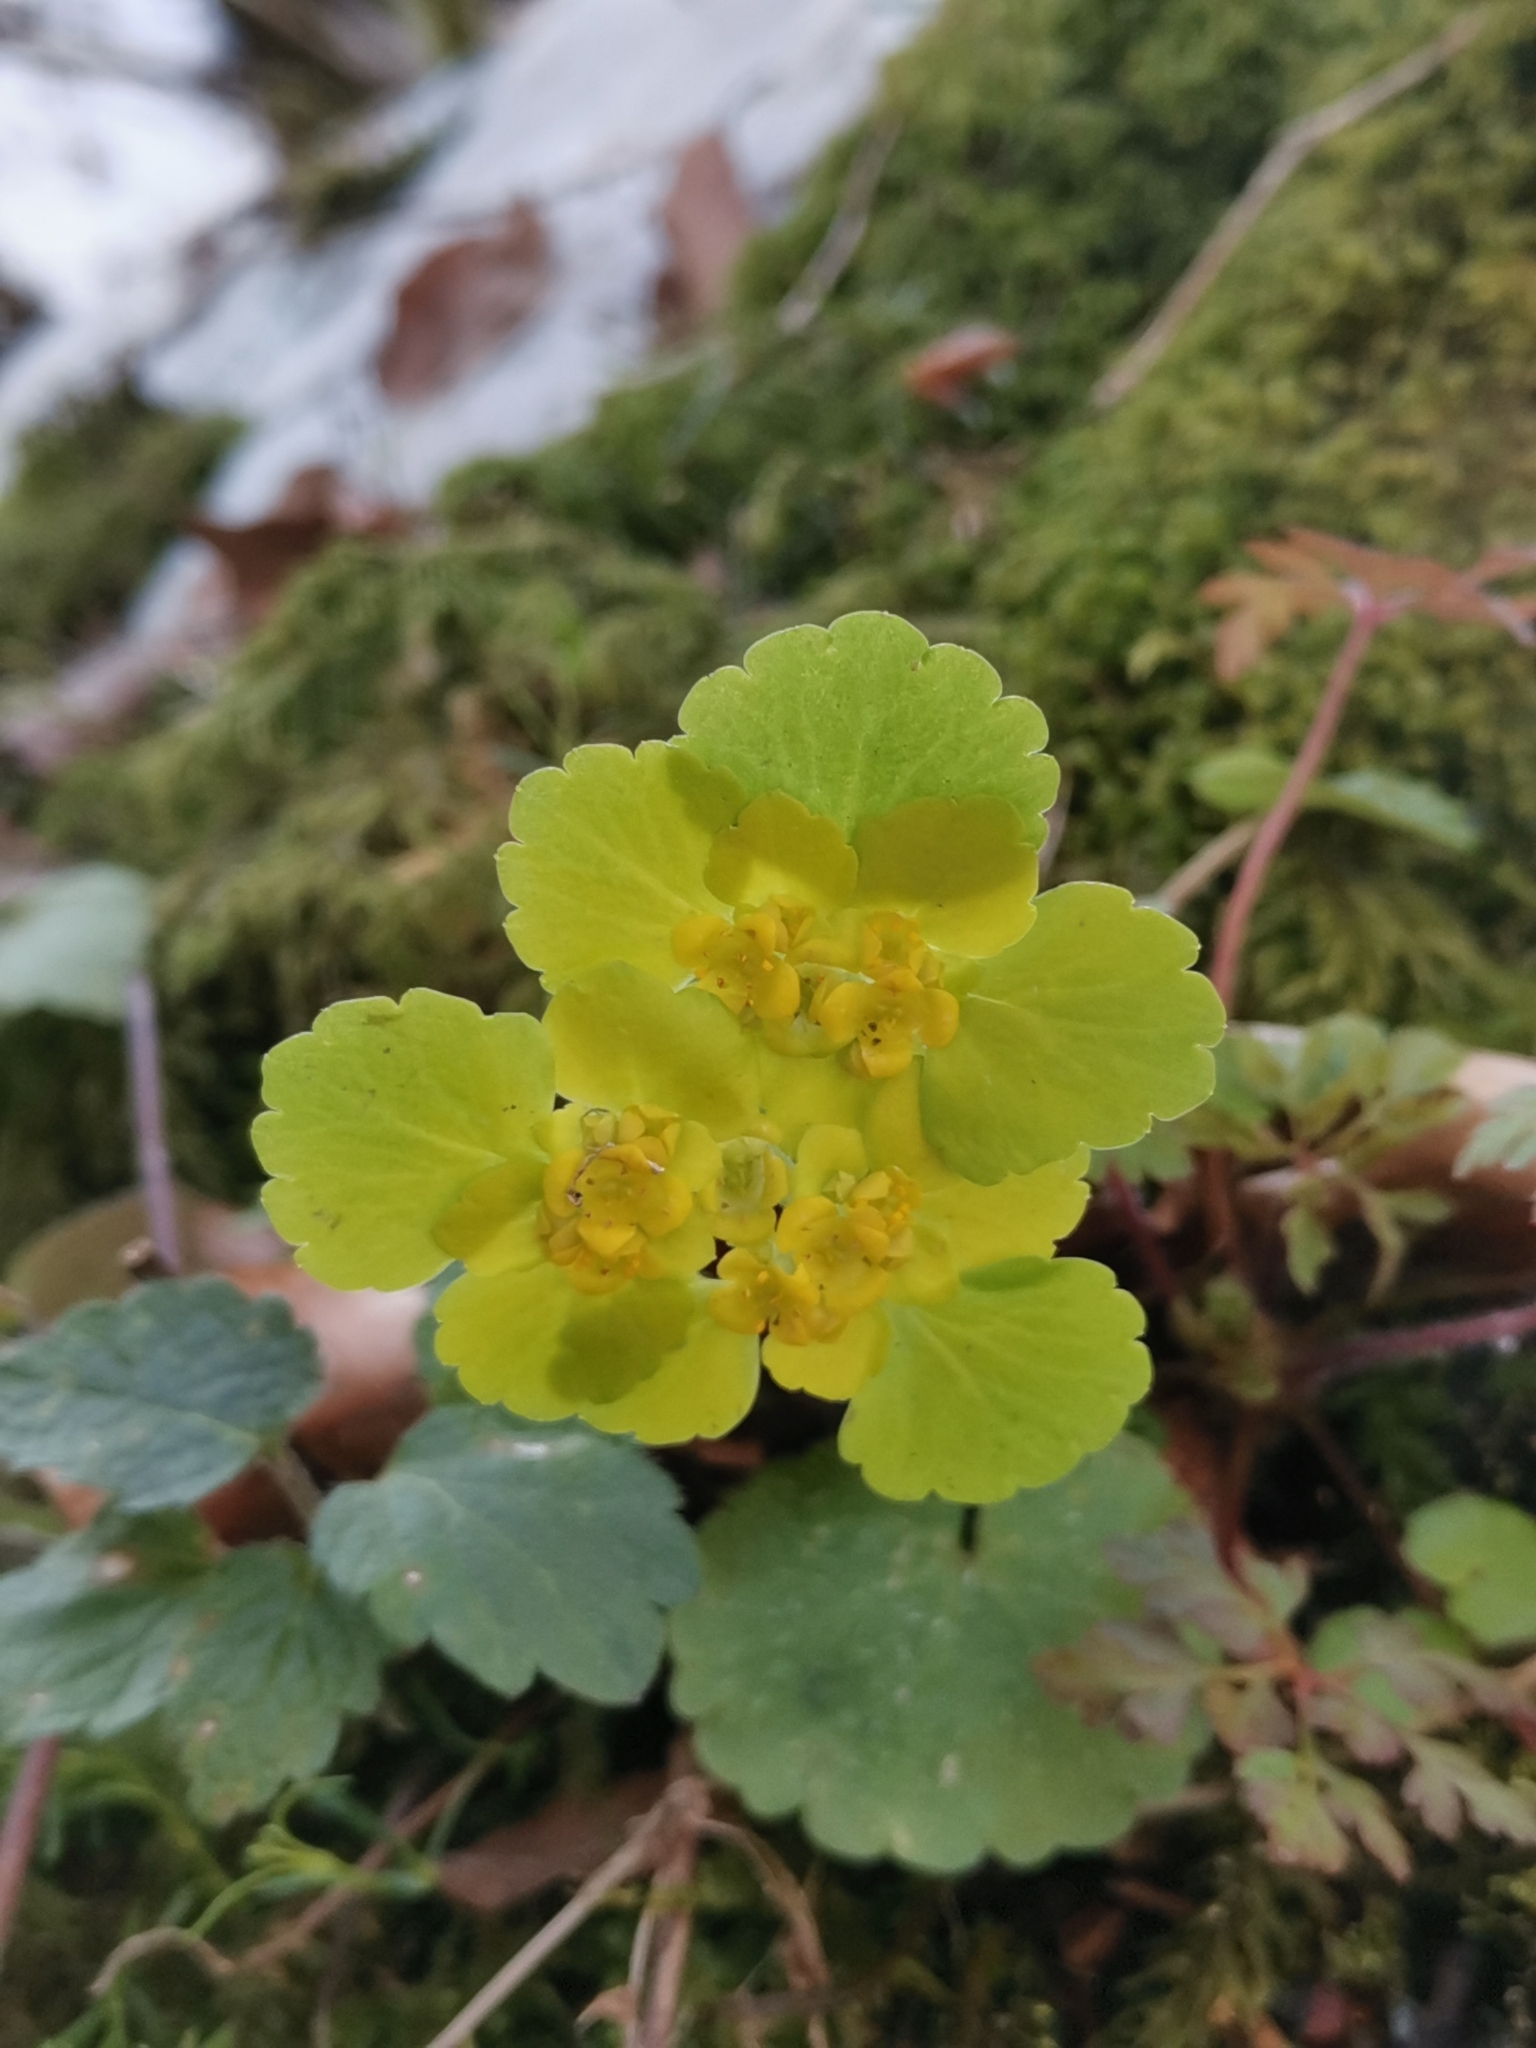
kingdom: Plantae
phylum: Tracheophyta
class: Magnoliopsida
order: Saxifragales
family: Saxifragaceae
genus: Chrysosplenium
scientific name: Chrysosplenium alternifolium
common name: Alternate-leaved golden-saxifrage
